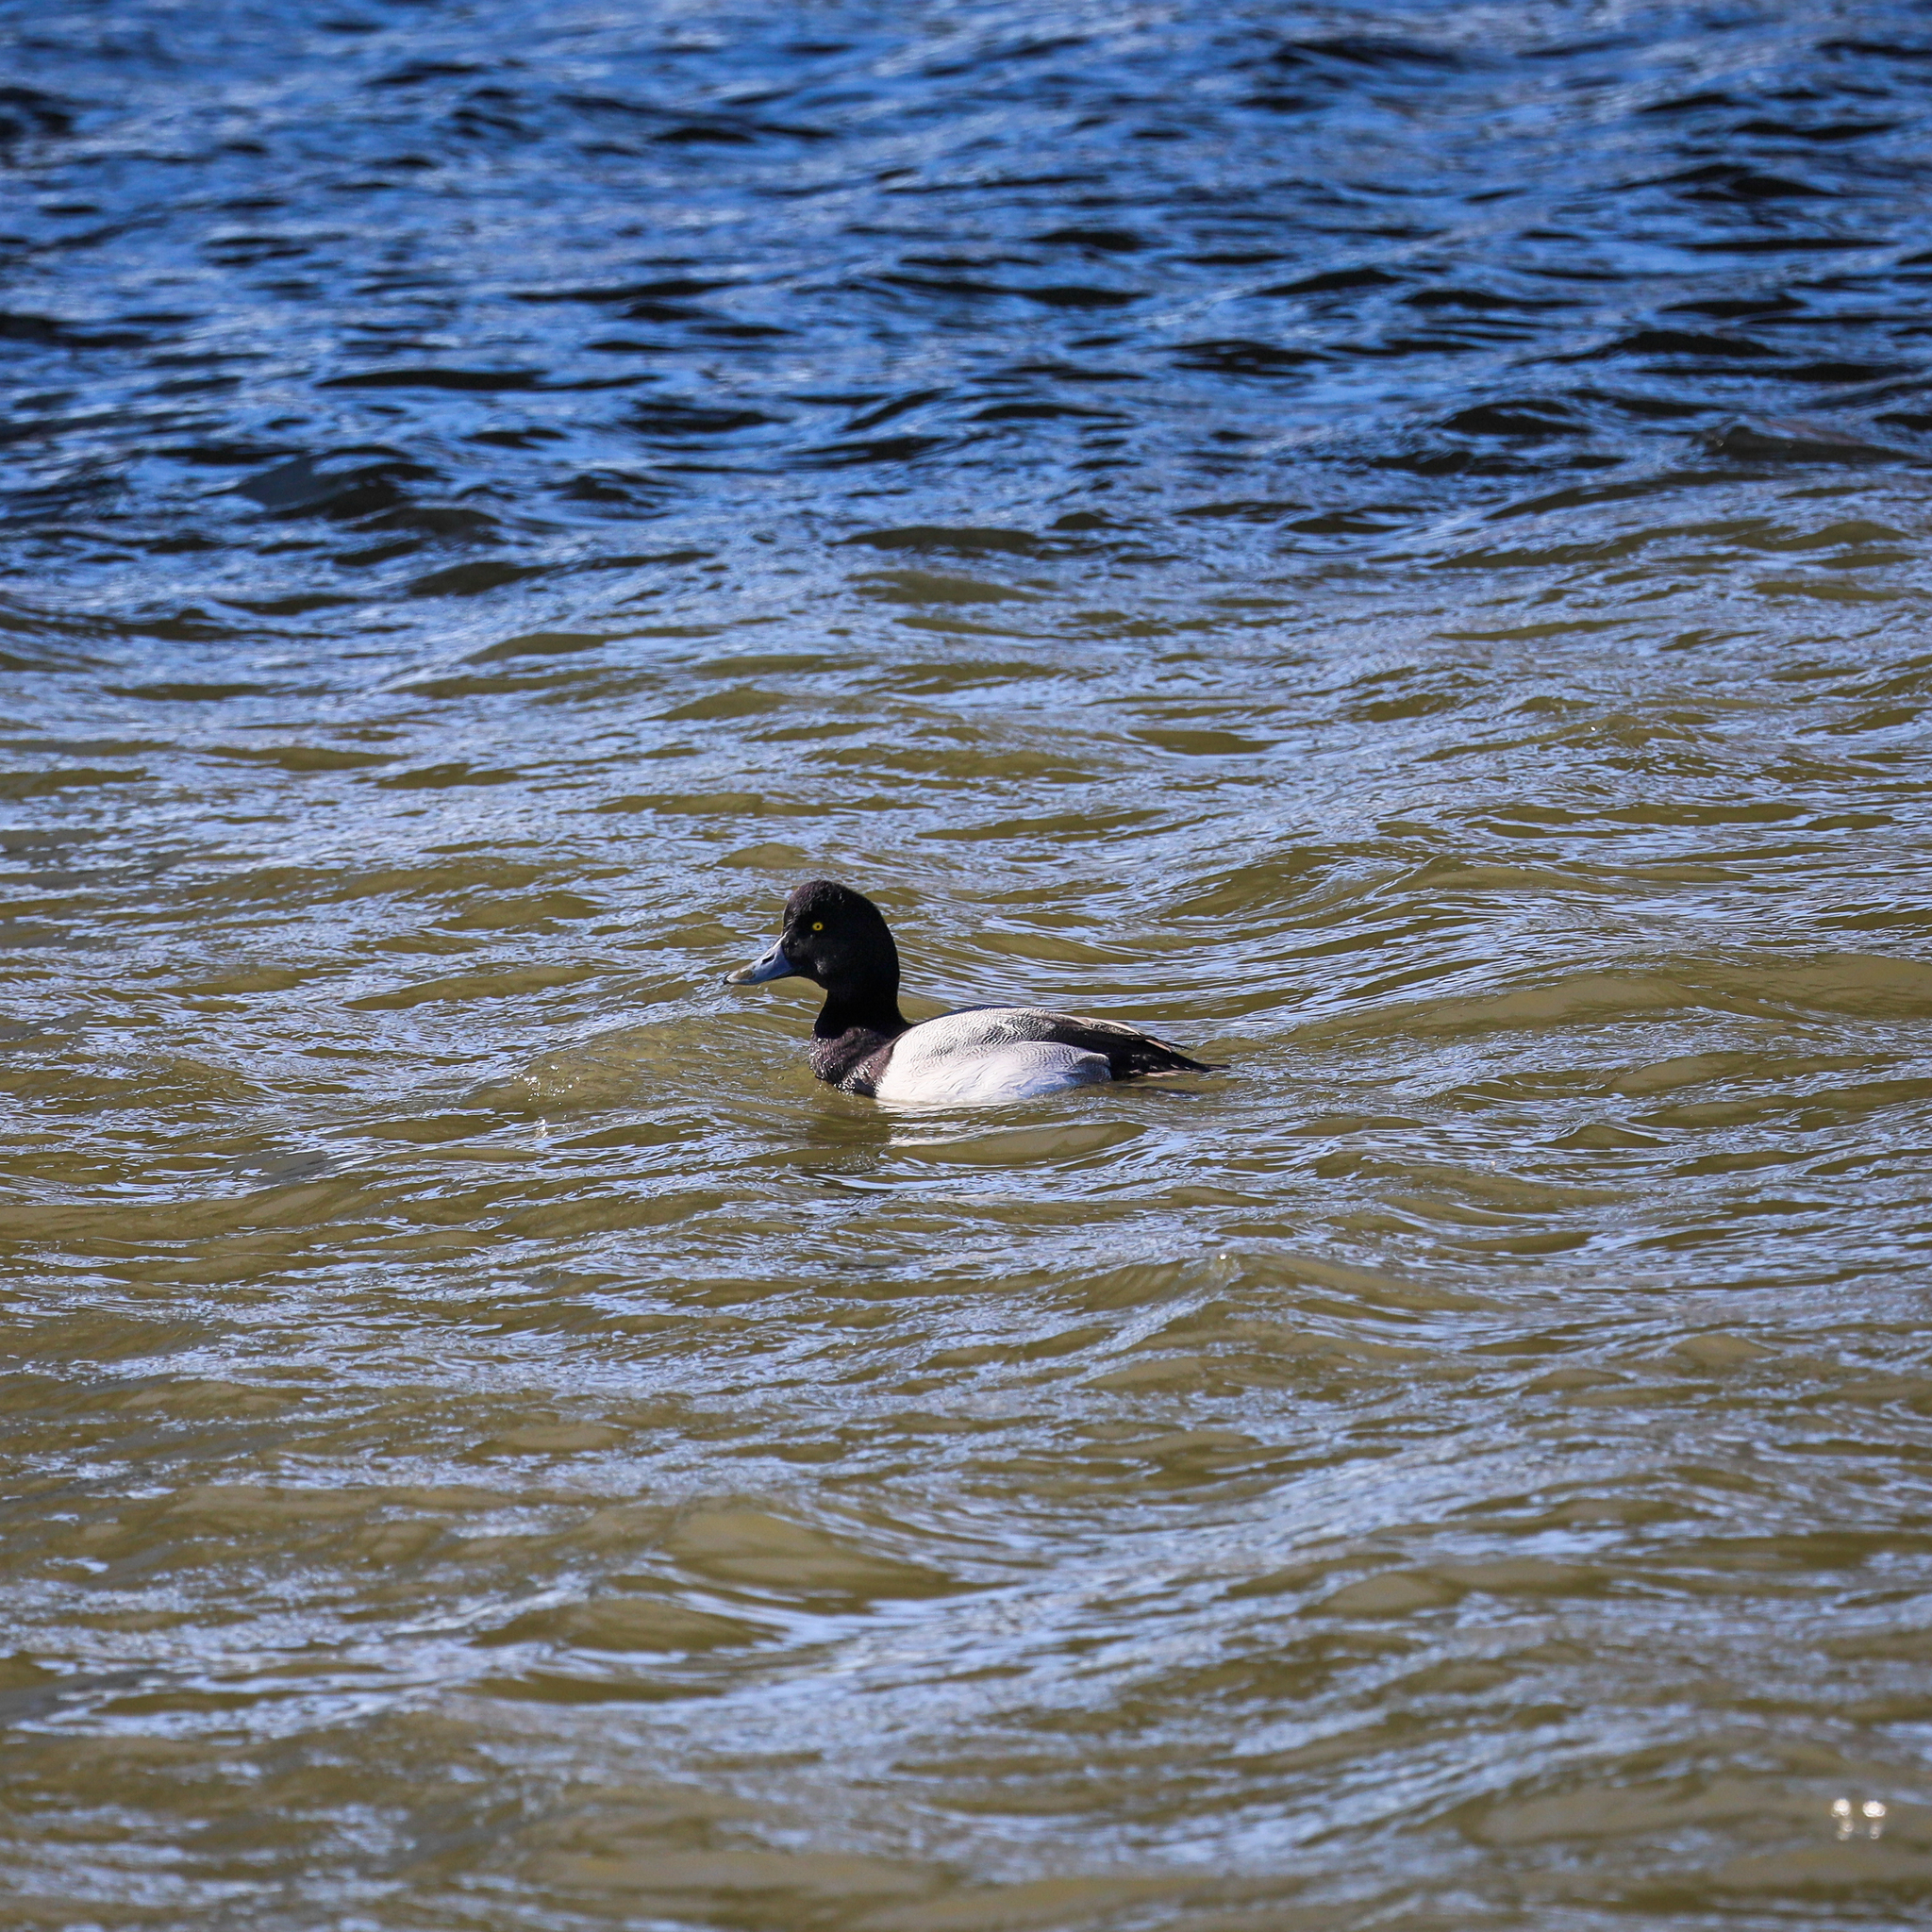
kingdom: Animalia
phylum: Chordata
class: Aves
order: Anseriformes
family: Anatidae
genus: Aythya
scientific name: Aythya affinis
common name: Lesser scaup
